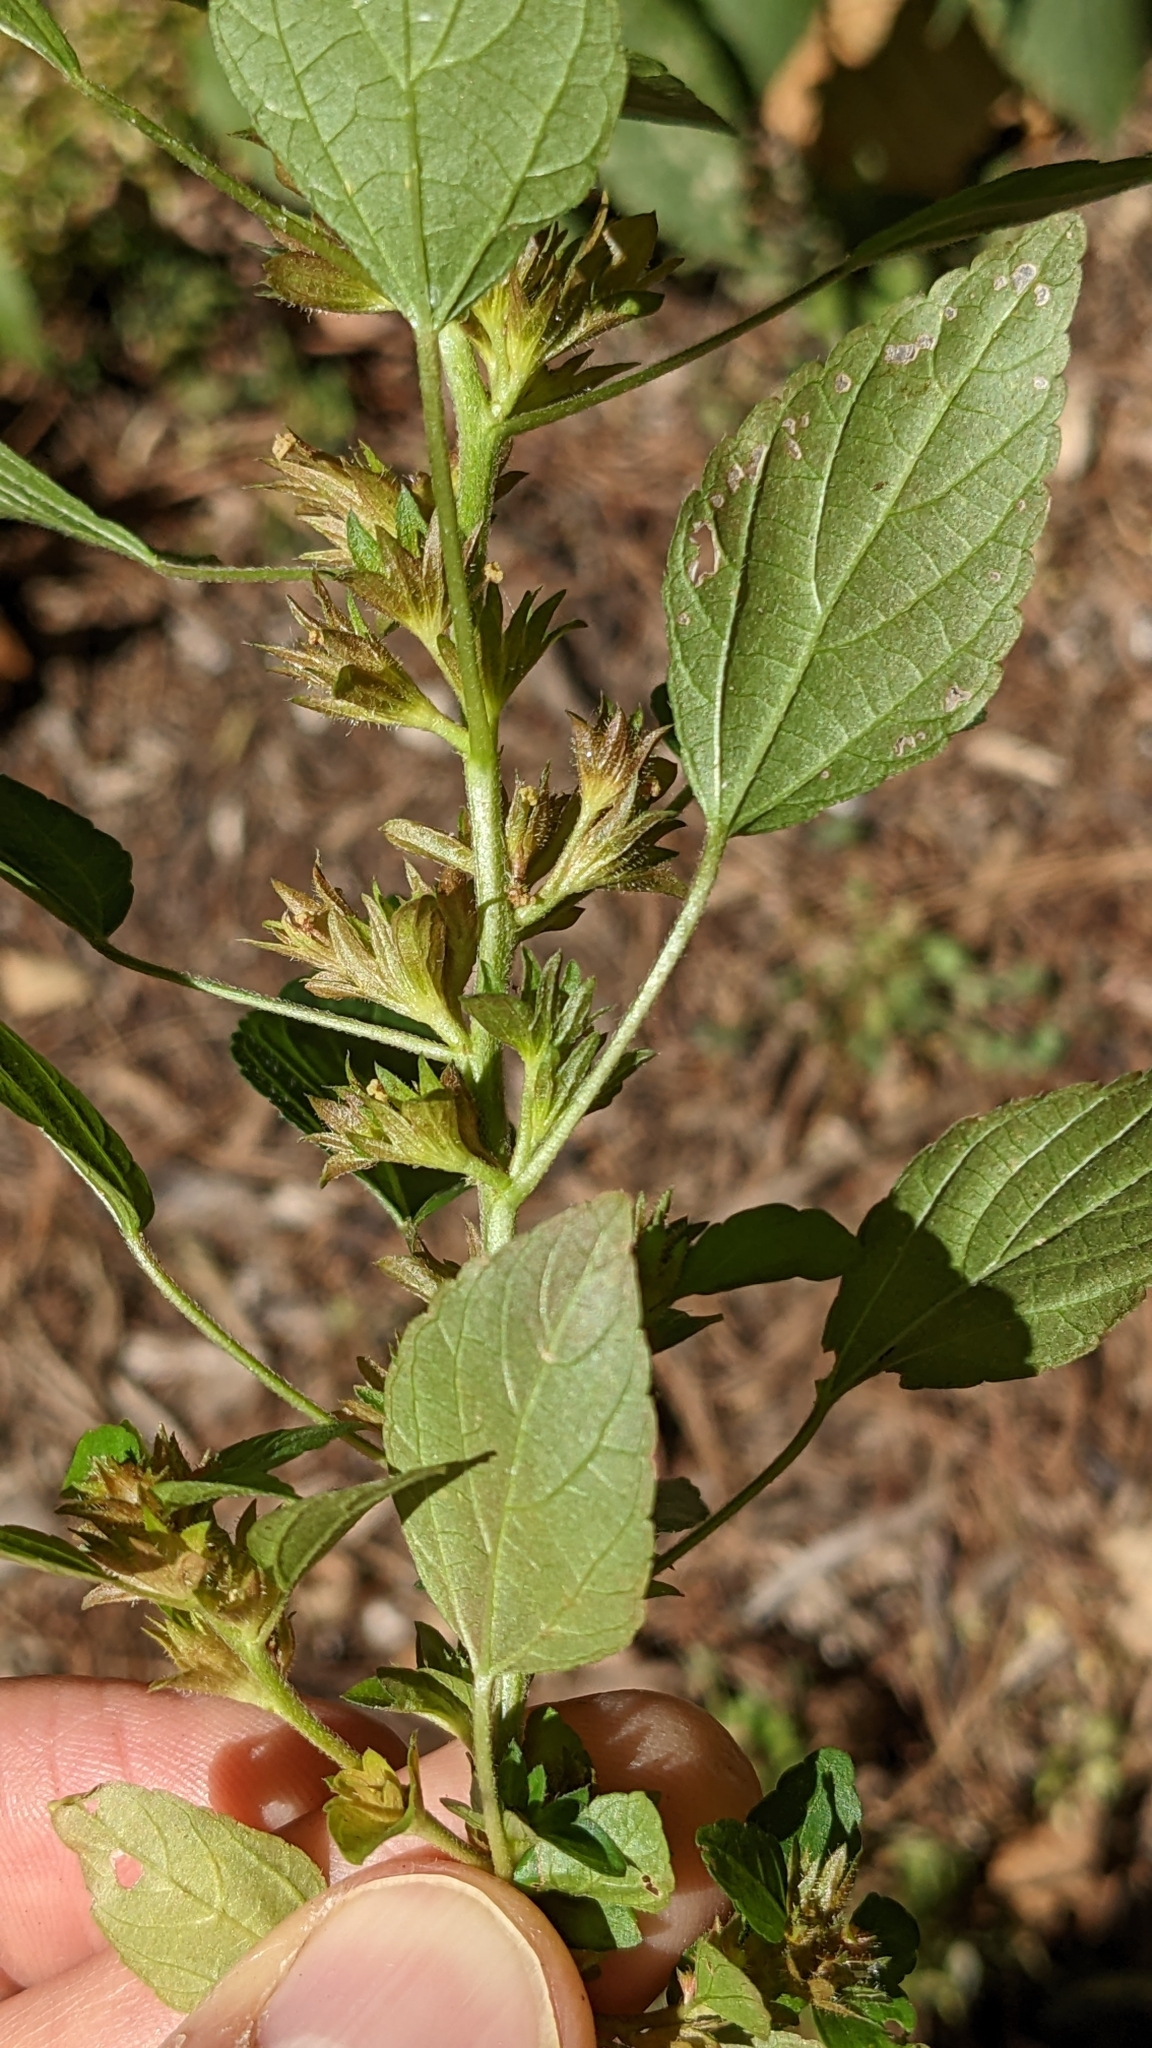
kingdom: Plantae
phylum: Tracheophyta
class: Magnoliopsida
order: Malpighiales
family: Euphorbiaceae
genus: Acalypha
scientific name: Acalypha rhomboidea
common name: Rhombic copperleaf
